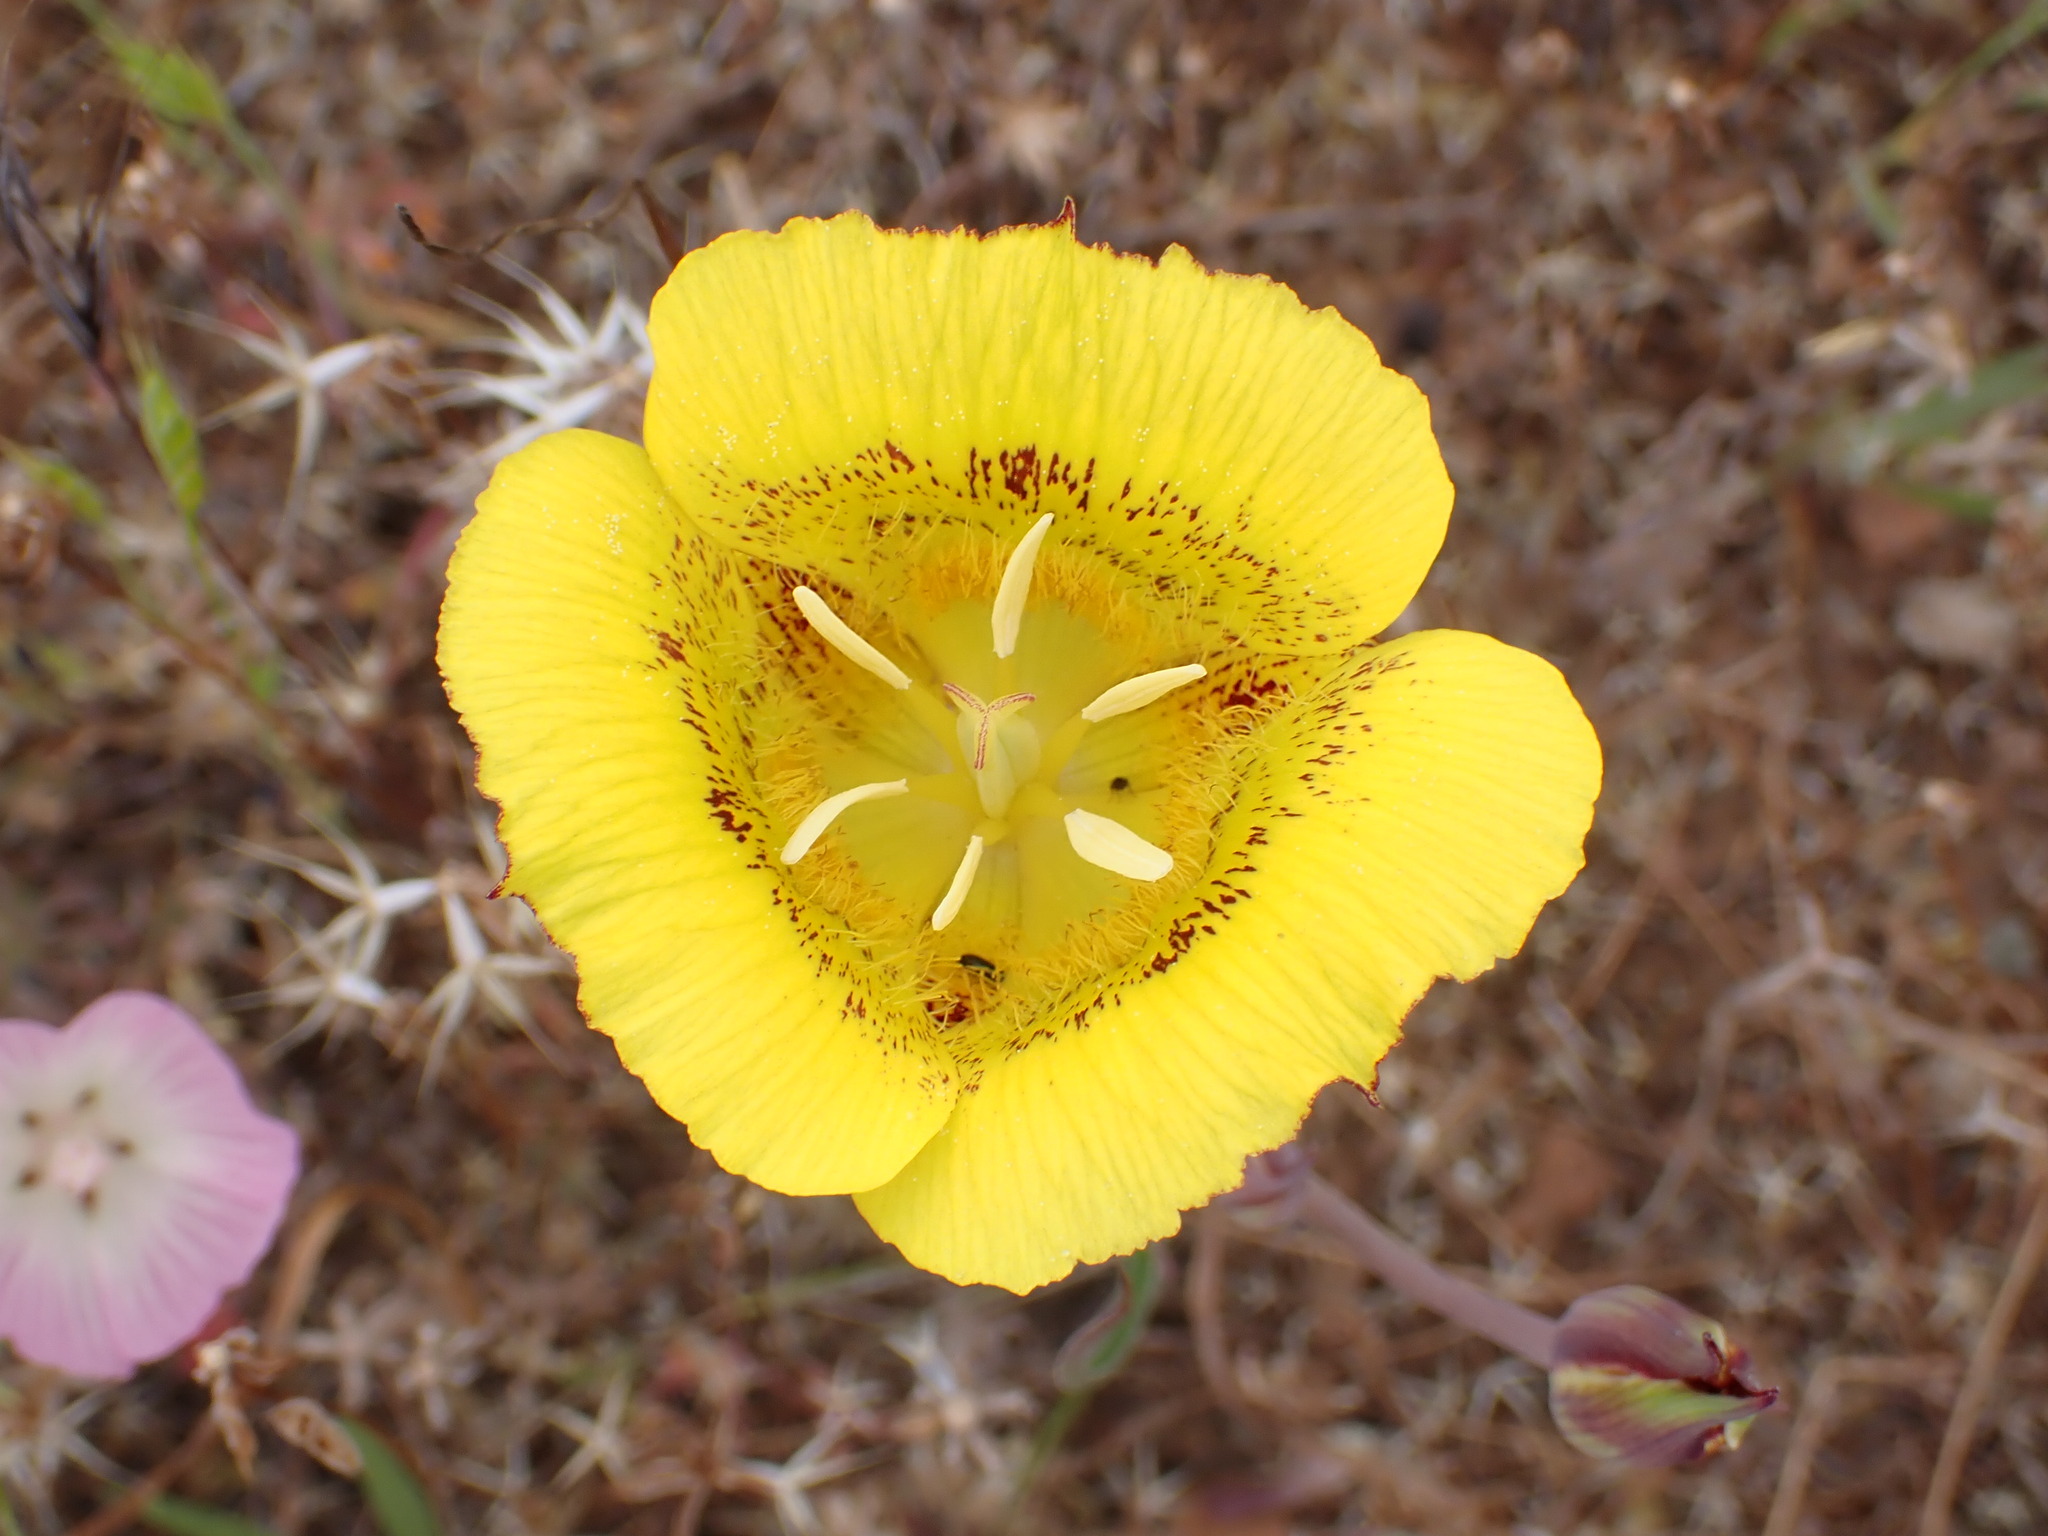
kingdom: Plantae
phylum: Tracheophyta
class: Liliopsida
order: Liliales
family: Liliaceae
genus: Calochortus
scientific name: Calochortus luteus
